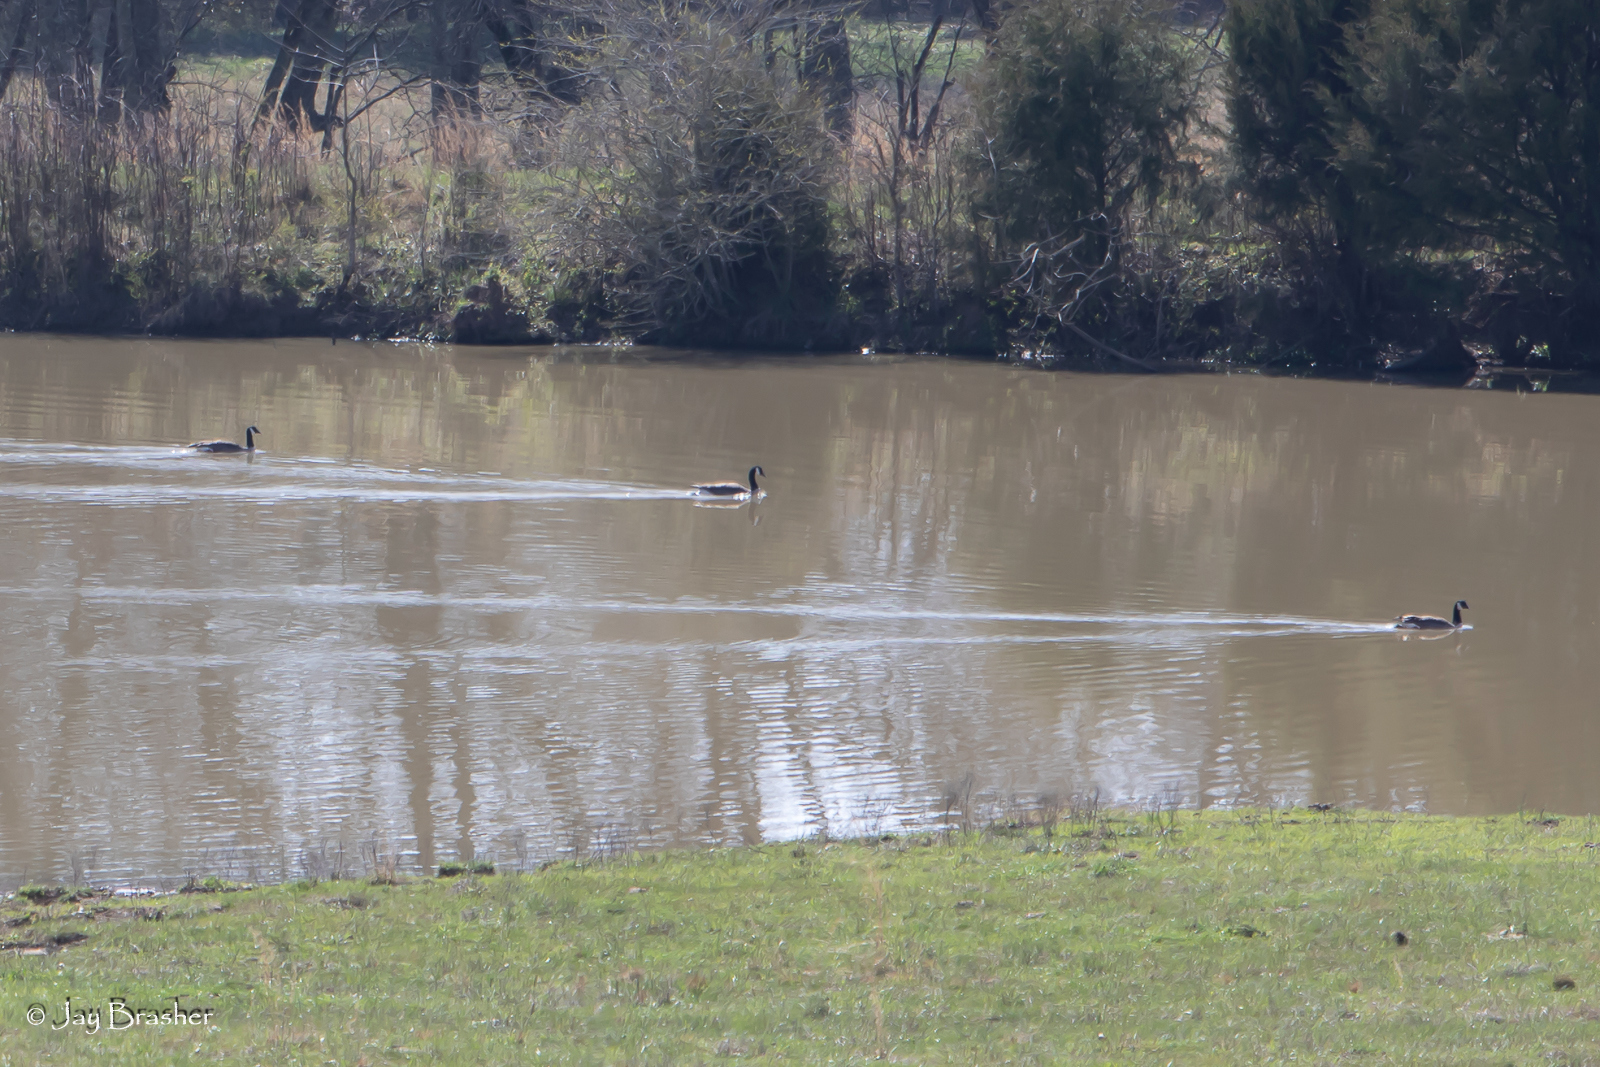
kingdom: Animalia
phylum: Chordata
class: Aves
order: Anseriformes
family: Anatidae
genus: Branta
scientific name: Branta canadensis
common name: Canada goose
